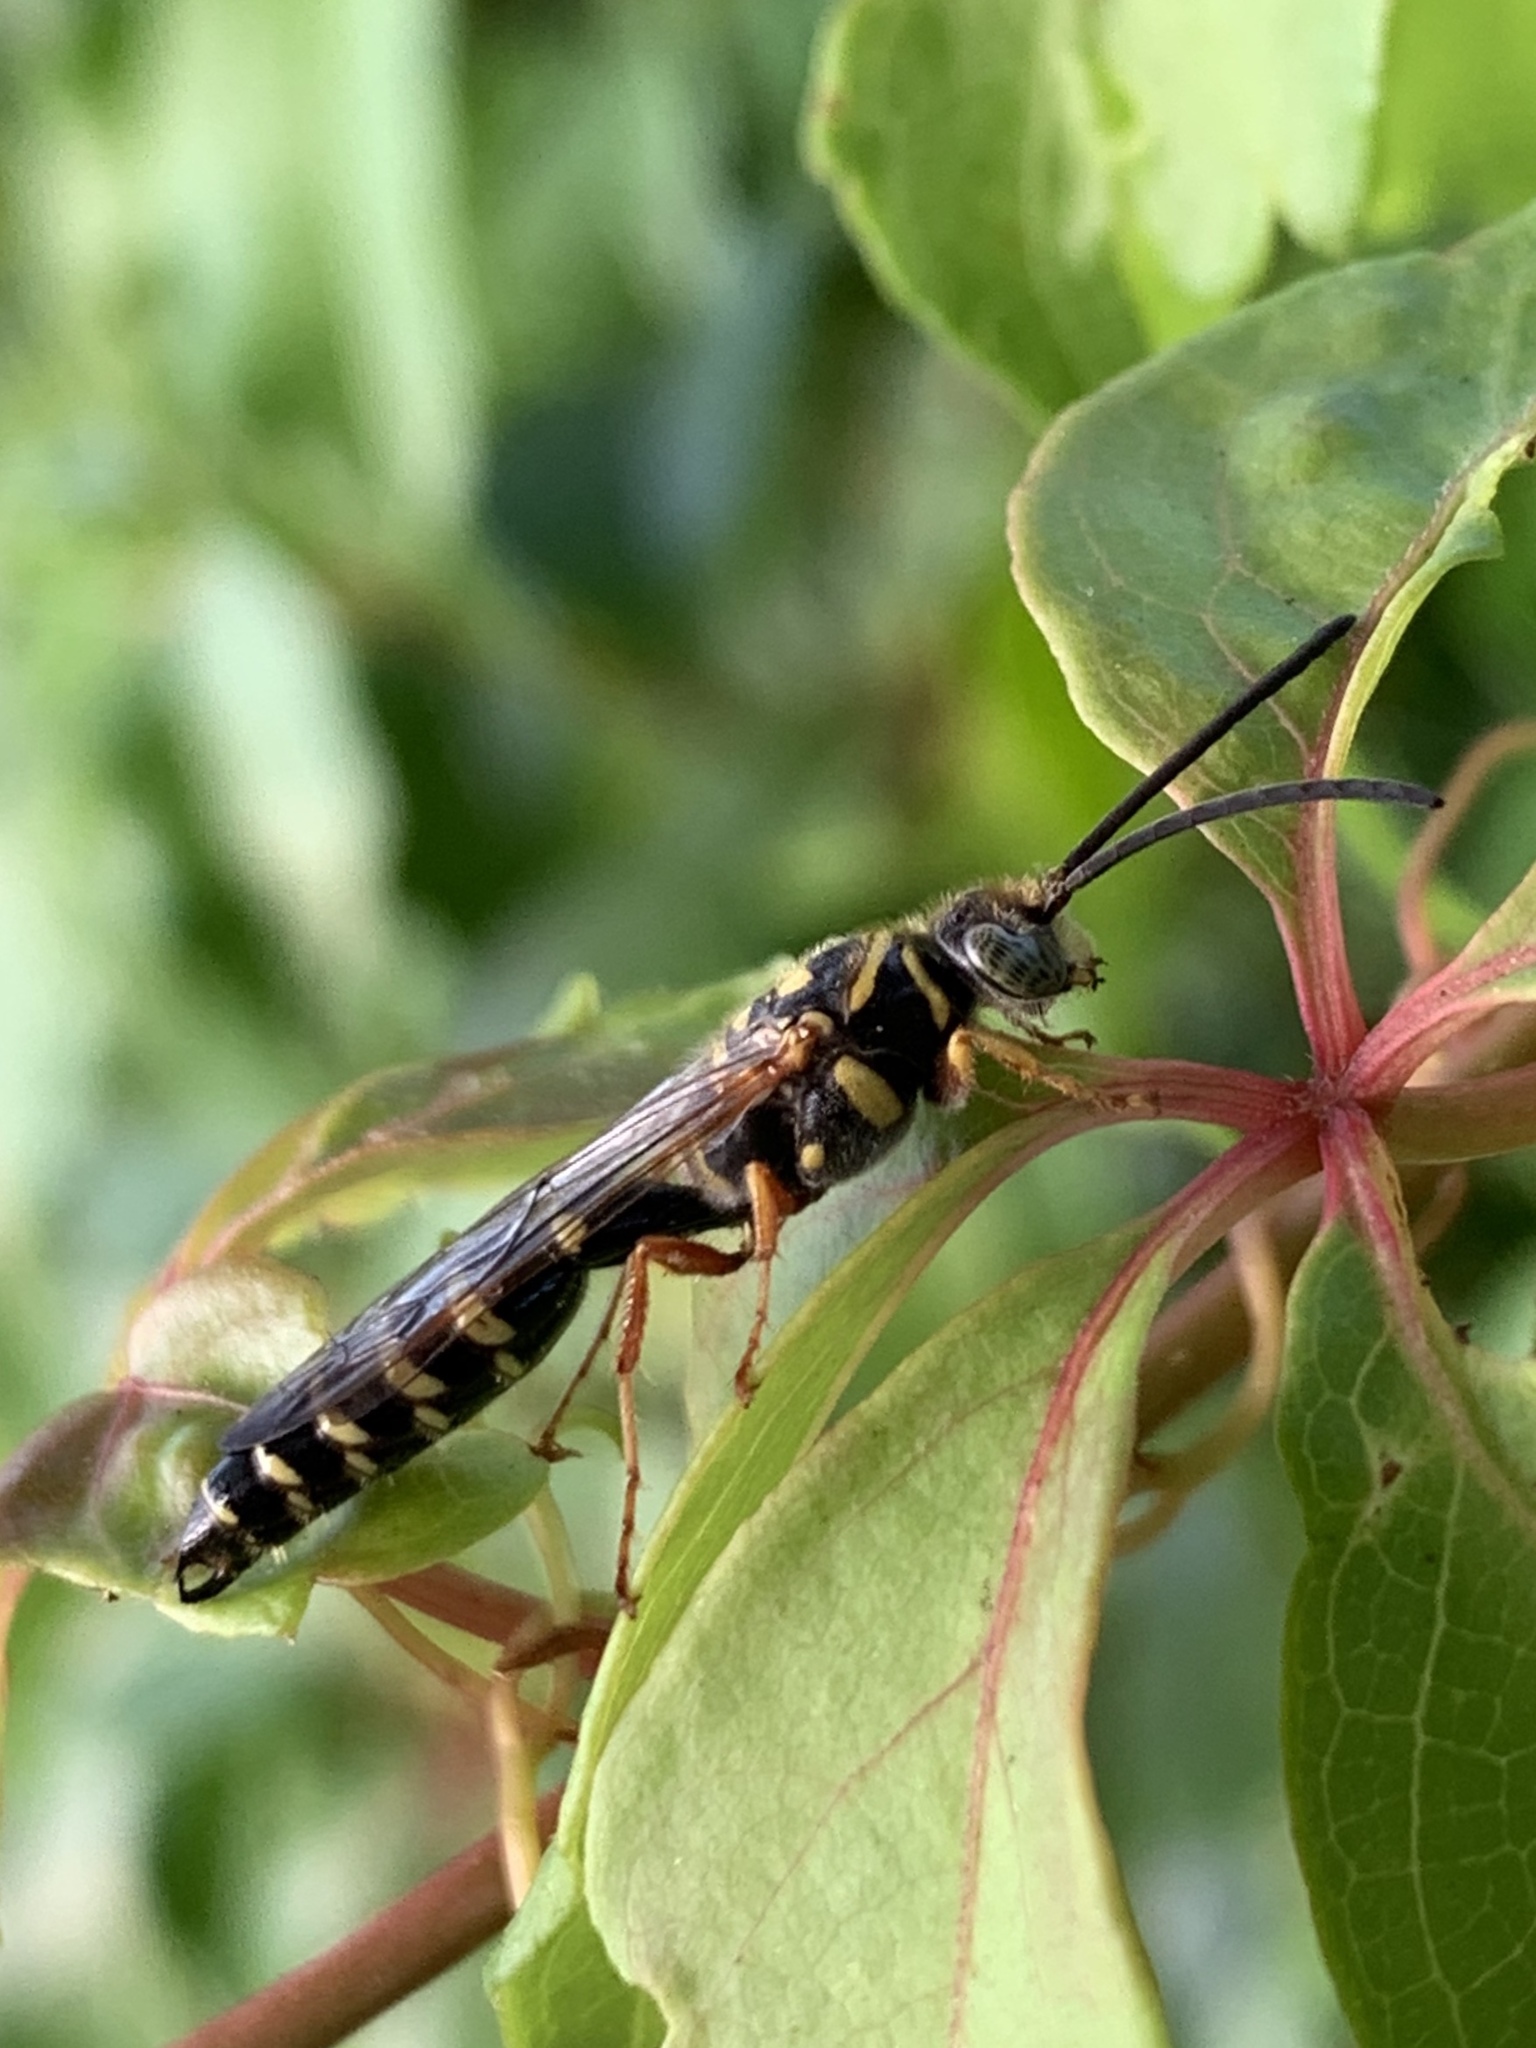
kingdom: Animalia
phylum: Arthropoda
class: Insecta
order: Hymenoptera
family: Tiphiidae
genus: Myzinum
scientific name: Myzinum dubiosum
